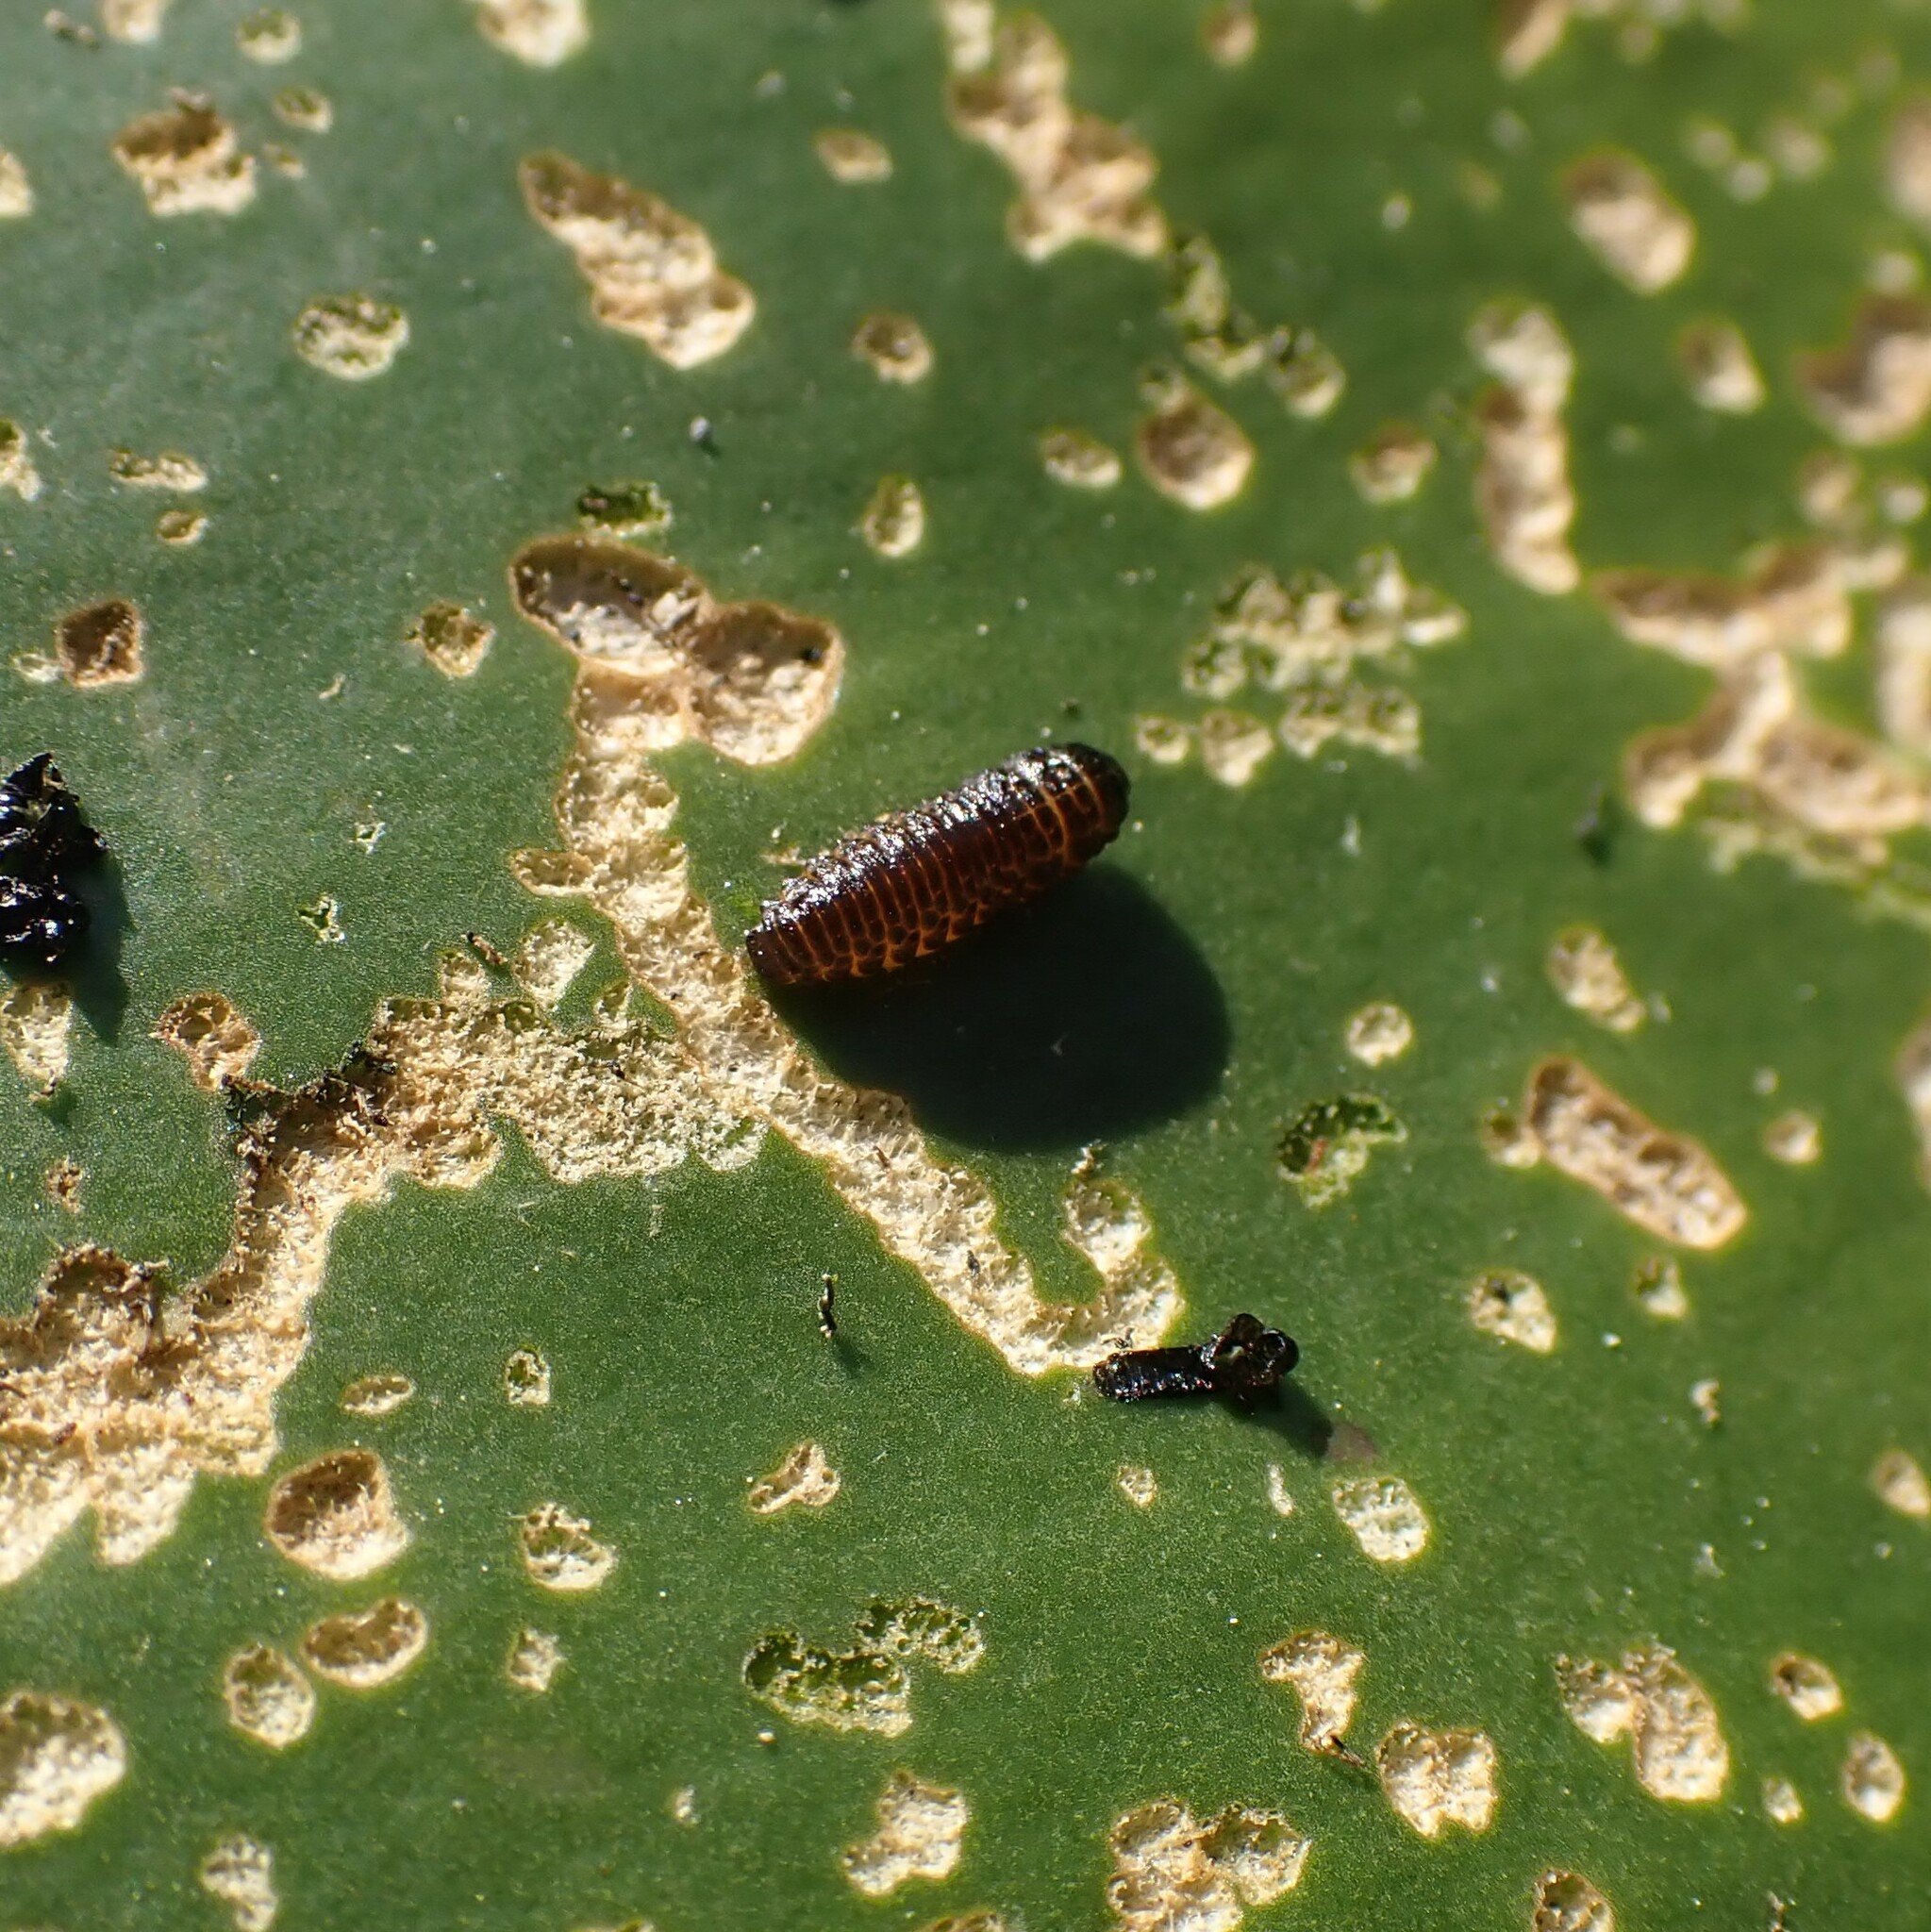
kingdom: Animalia
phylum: Arthropoda
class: Insecta
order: Coleoptera
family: Chrysomelidae
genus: Galerucella
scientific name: Galerucella nymphaeae
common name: Leaf beetle
